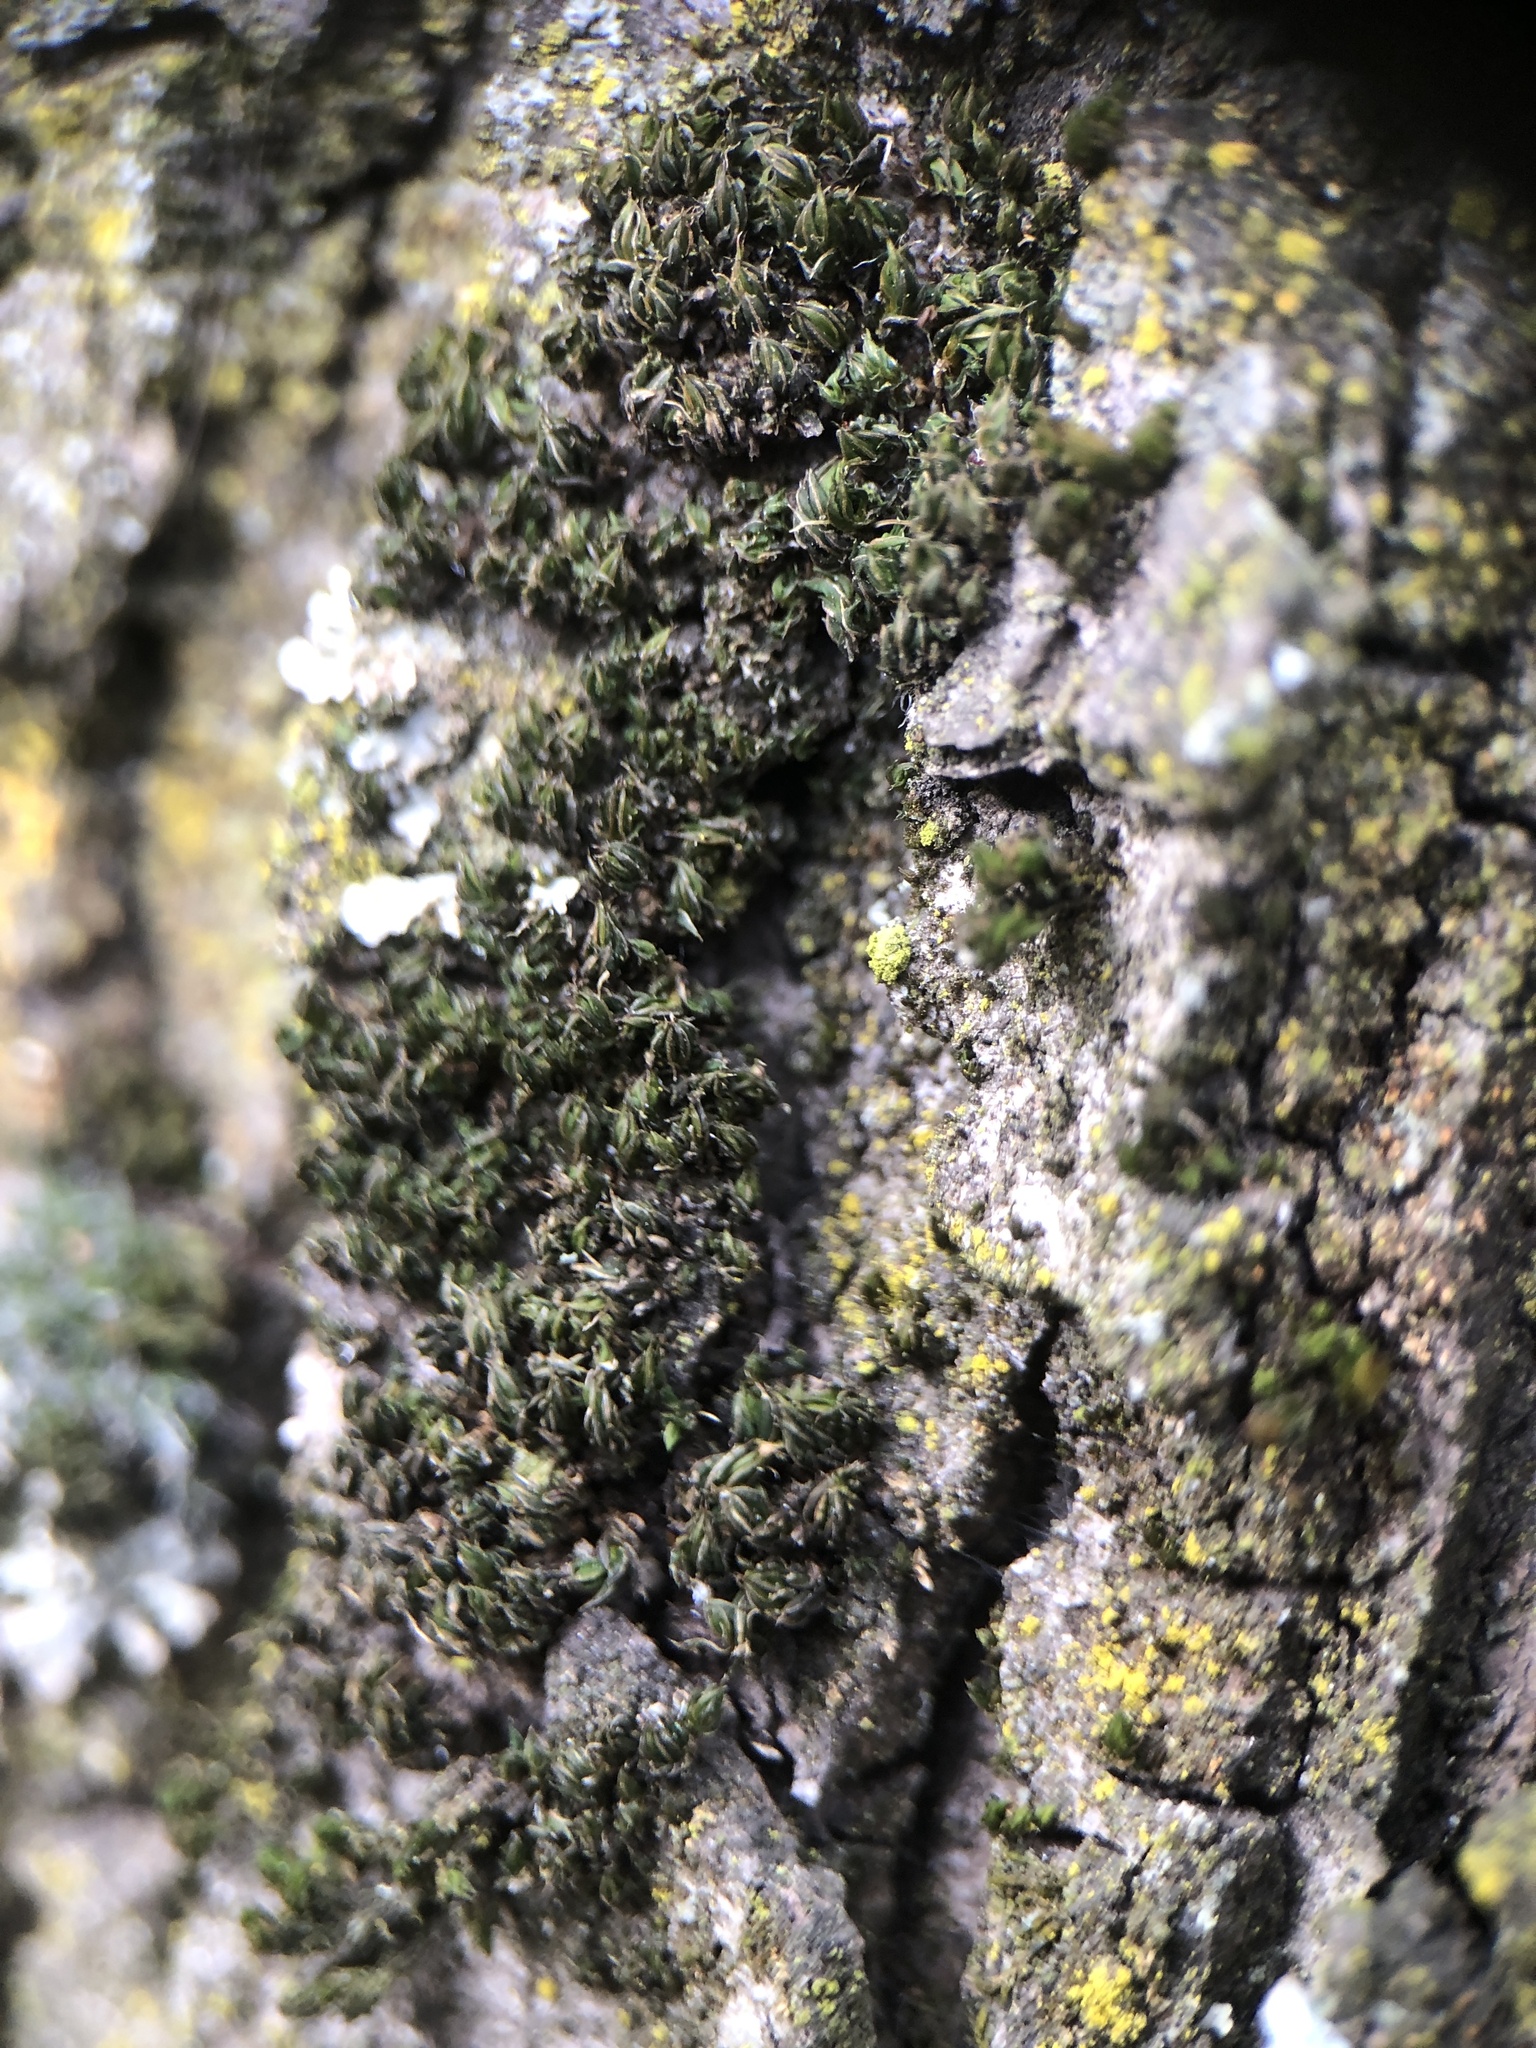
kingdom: Plantae
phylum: Bryophyta
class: Bryopsida
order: Pottiales
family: Pottiaceae
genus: Syntrichia
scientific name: Syntrichia papillosa
